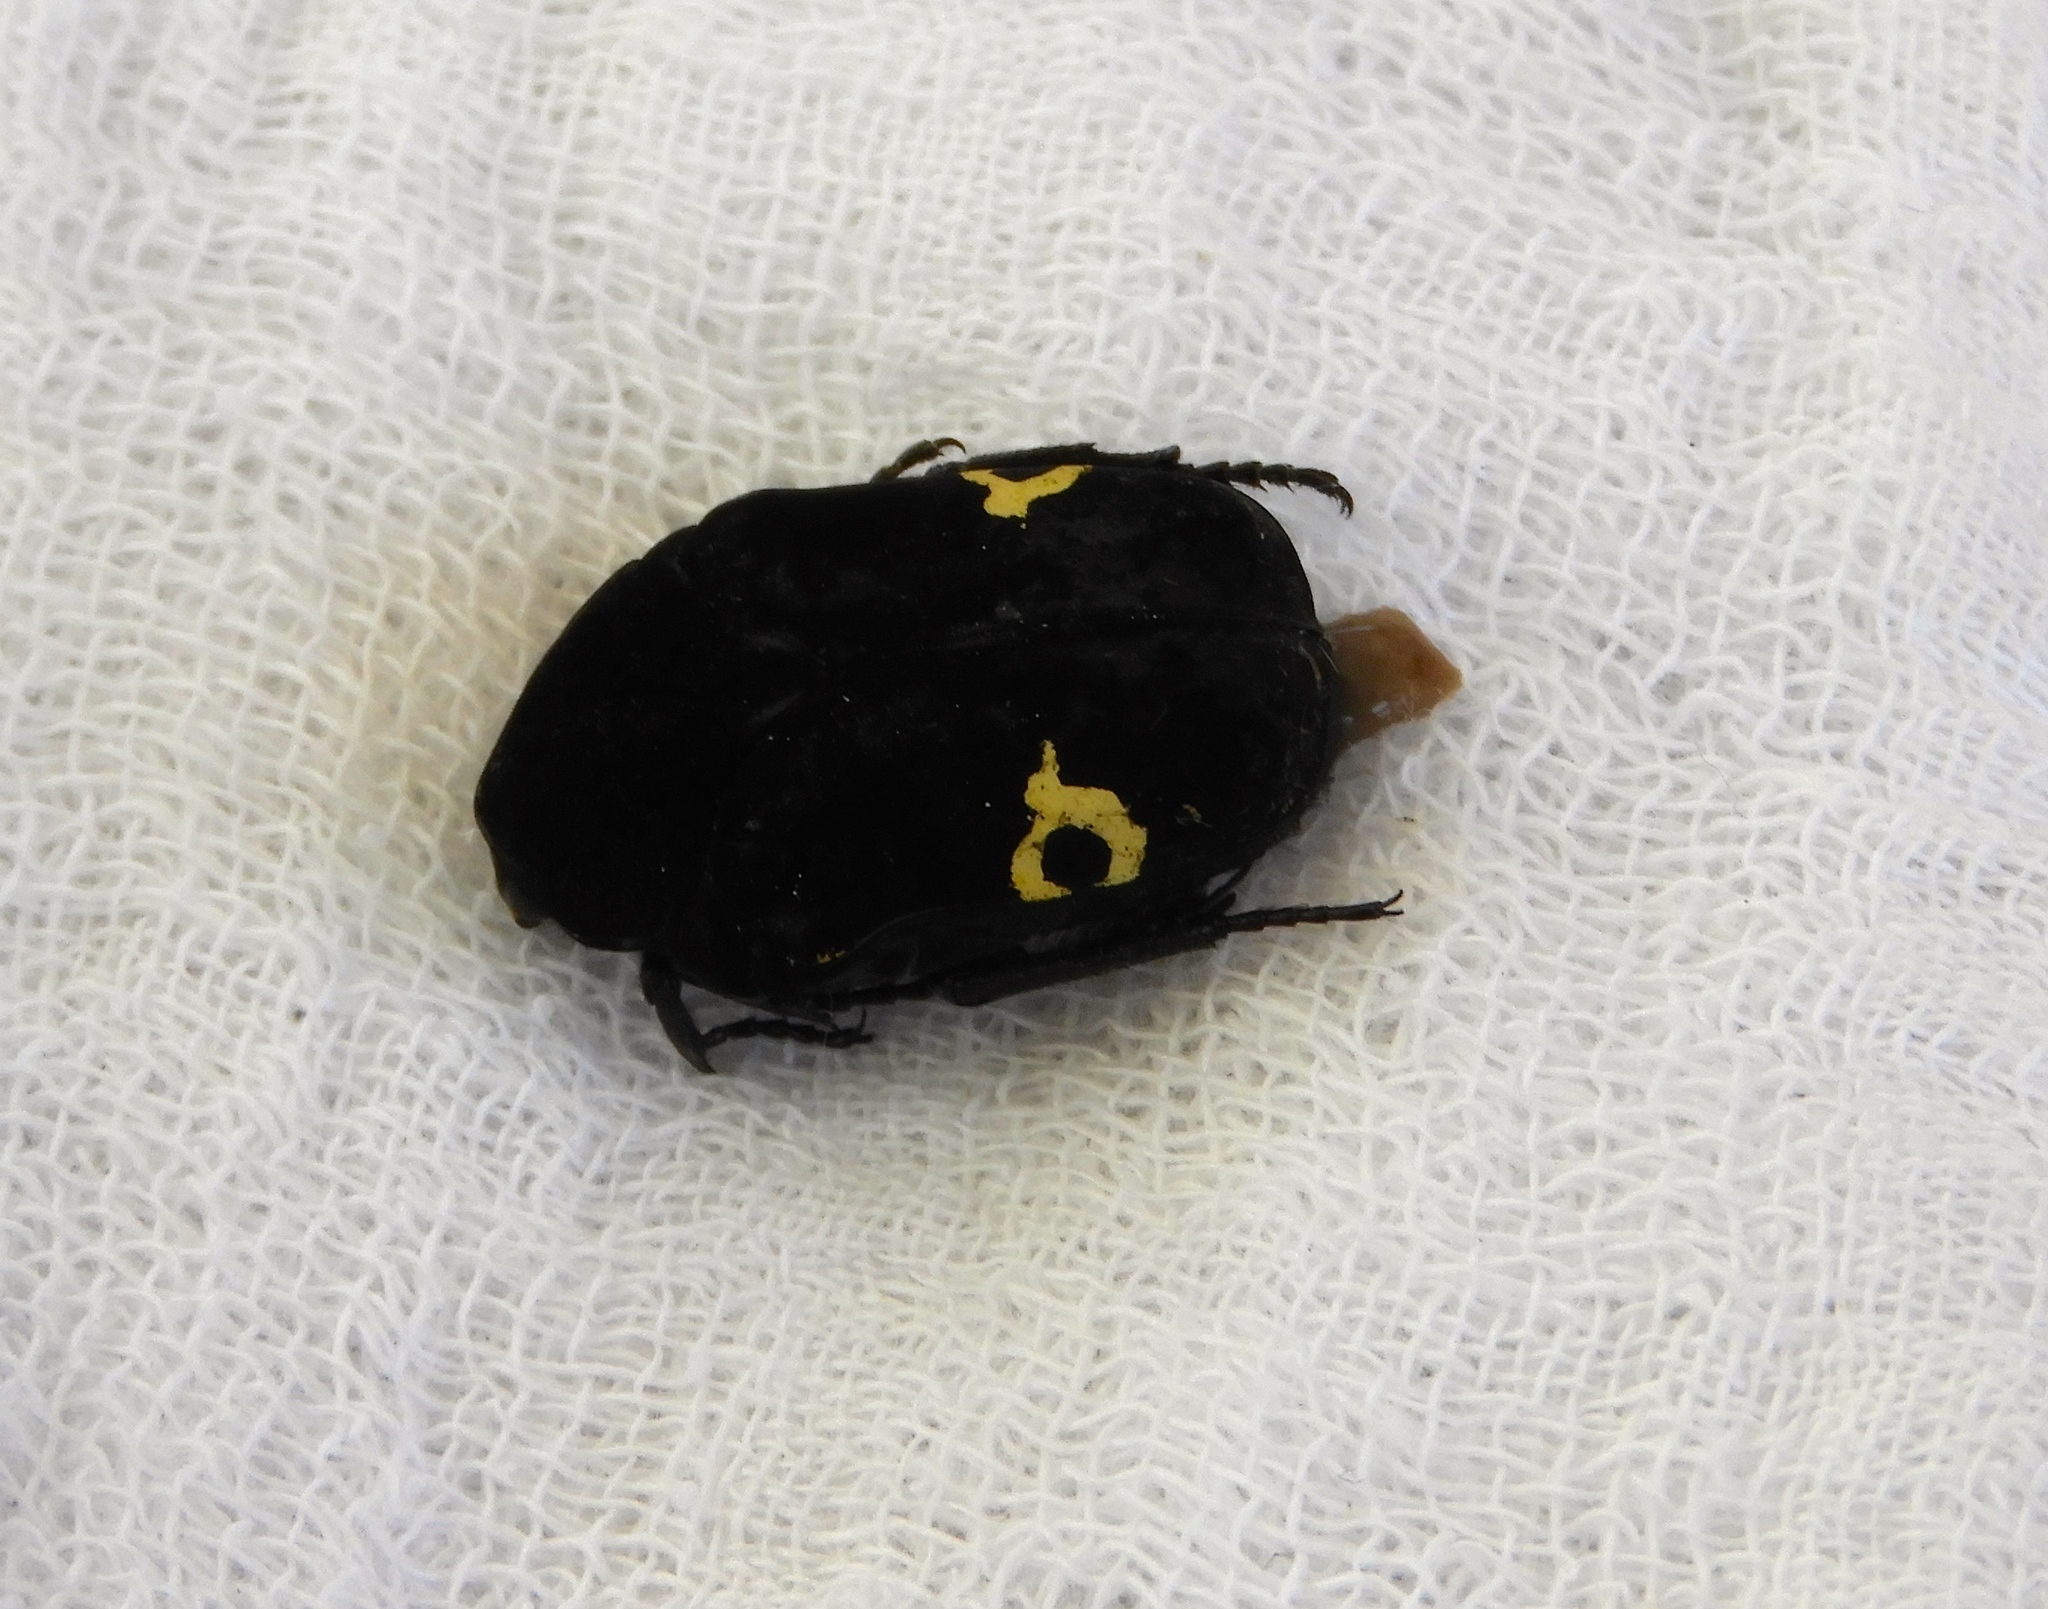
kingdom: Animalia
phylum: Arthropoda
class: Insecta
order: Coleoptera
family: Scarabaeidae
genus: Gymnetis
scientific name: Gymnetis
